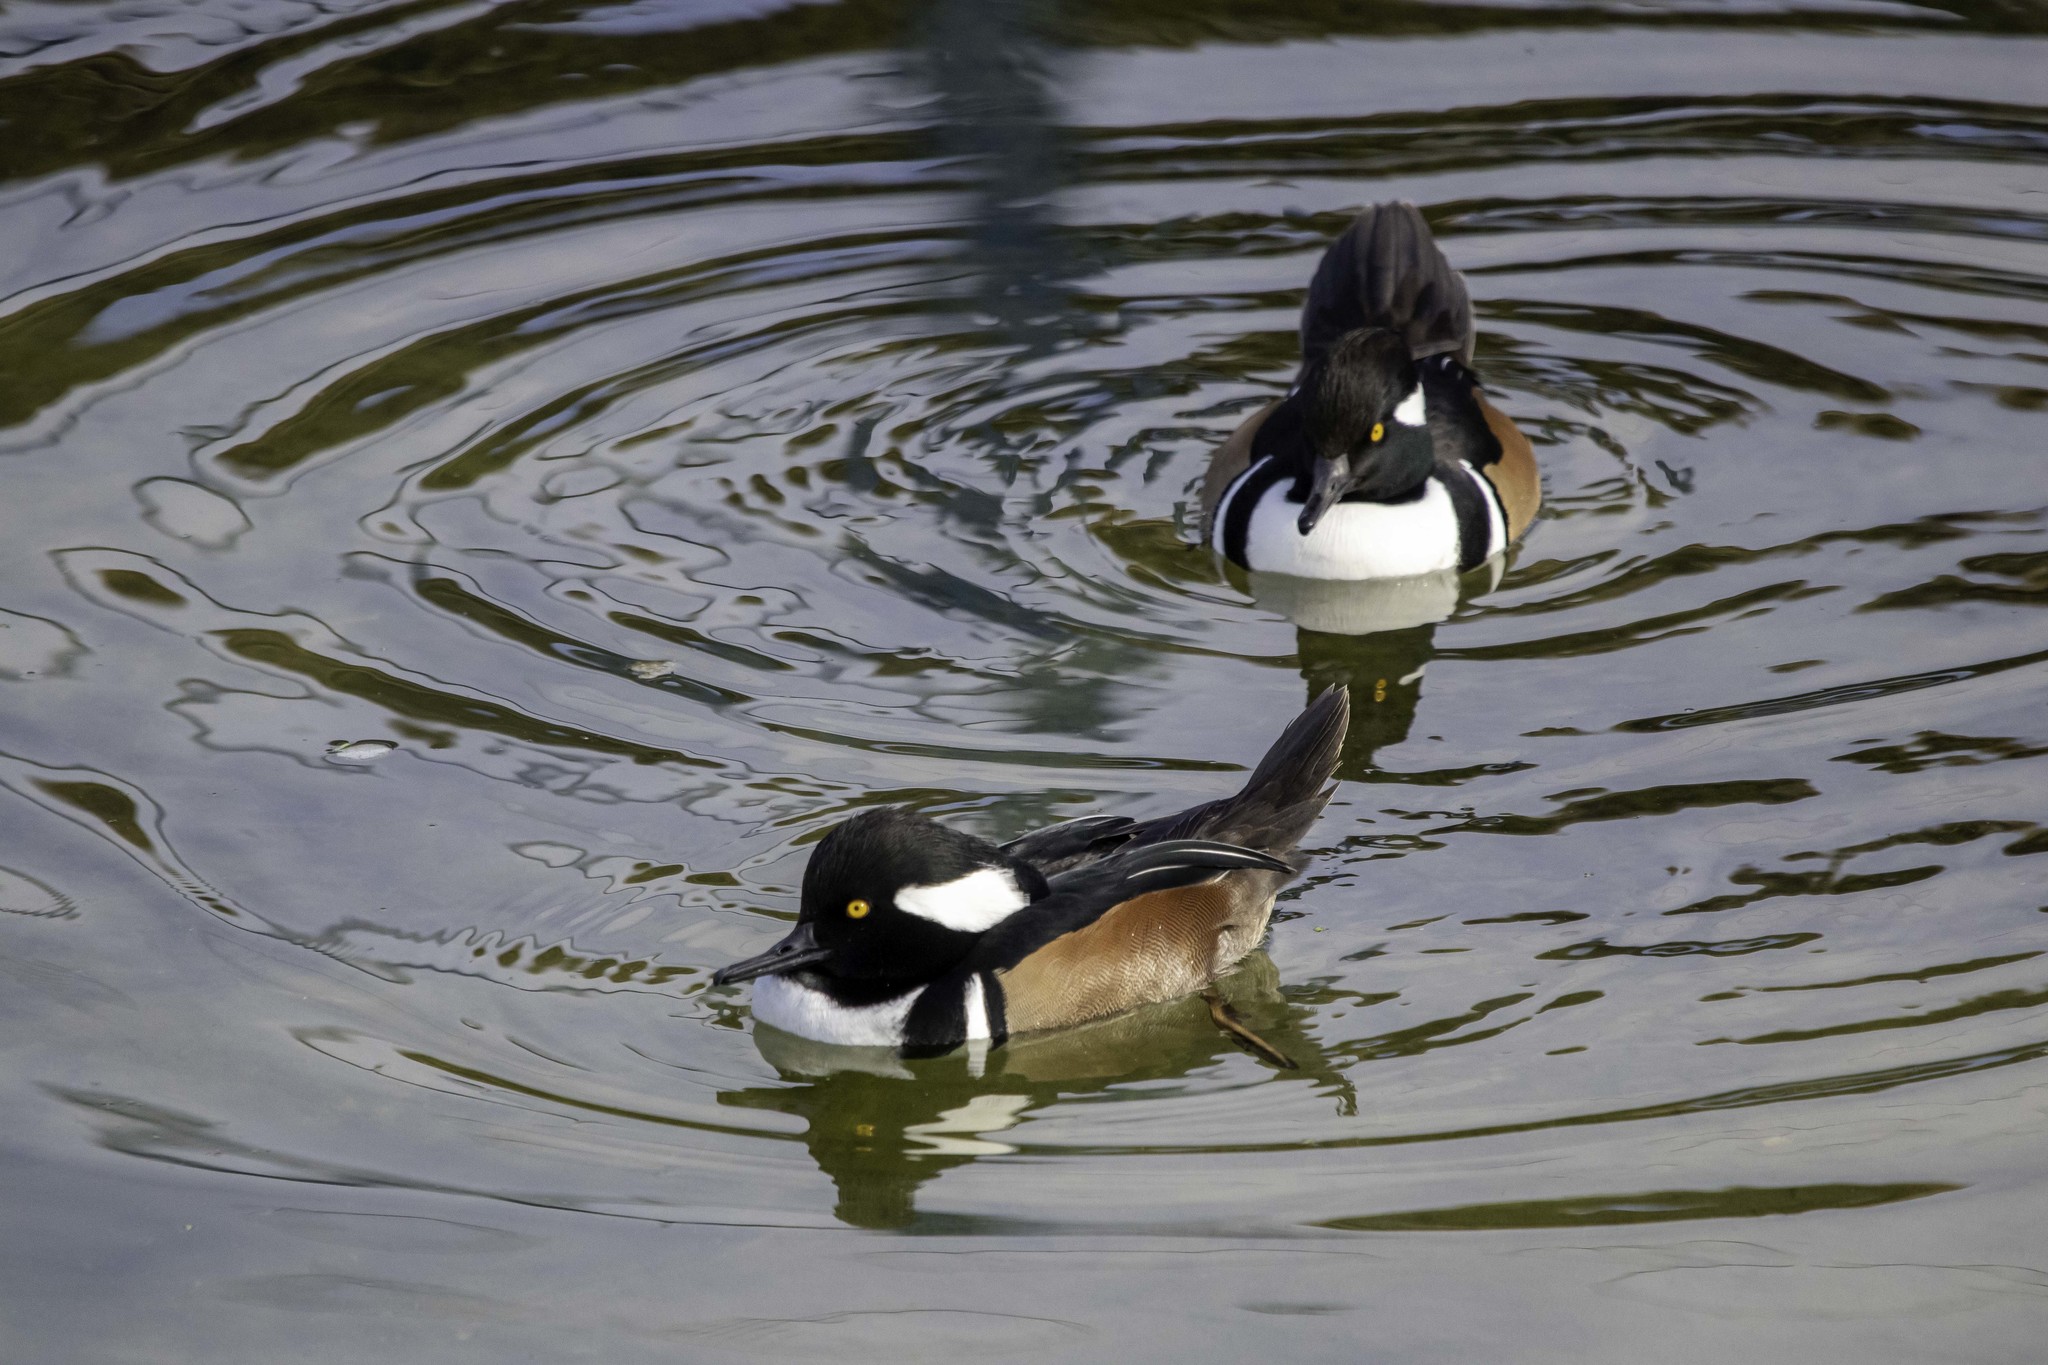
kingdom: Animalia
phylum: Chordata
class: Aves
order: Anseriformes
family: Anatidae
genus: Lophodytes
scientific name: Lophodytes cucullatus
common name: Hooded merganser
